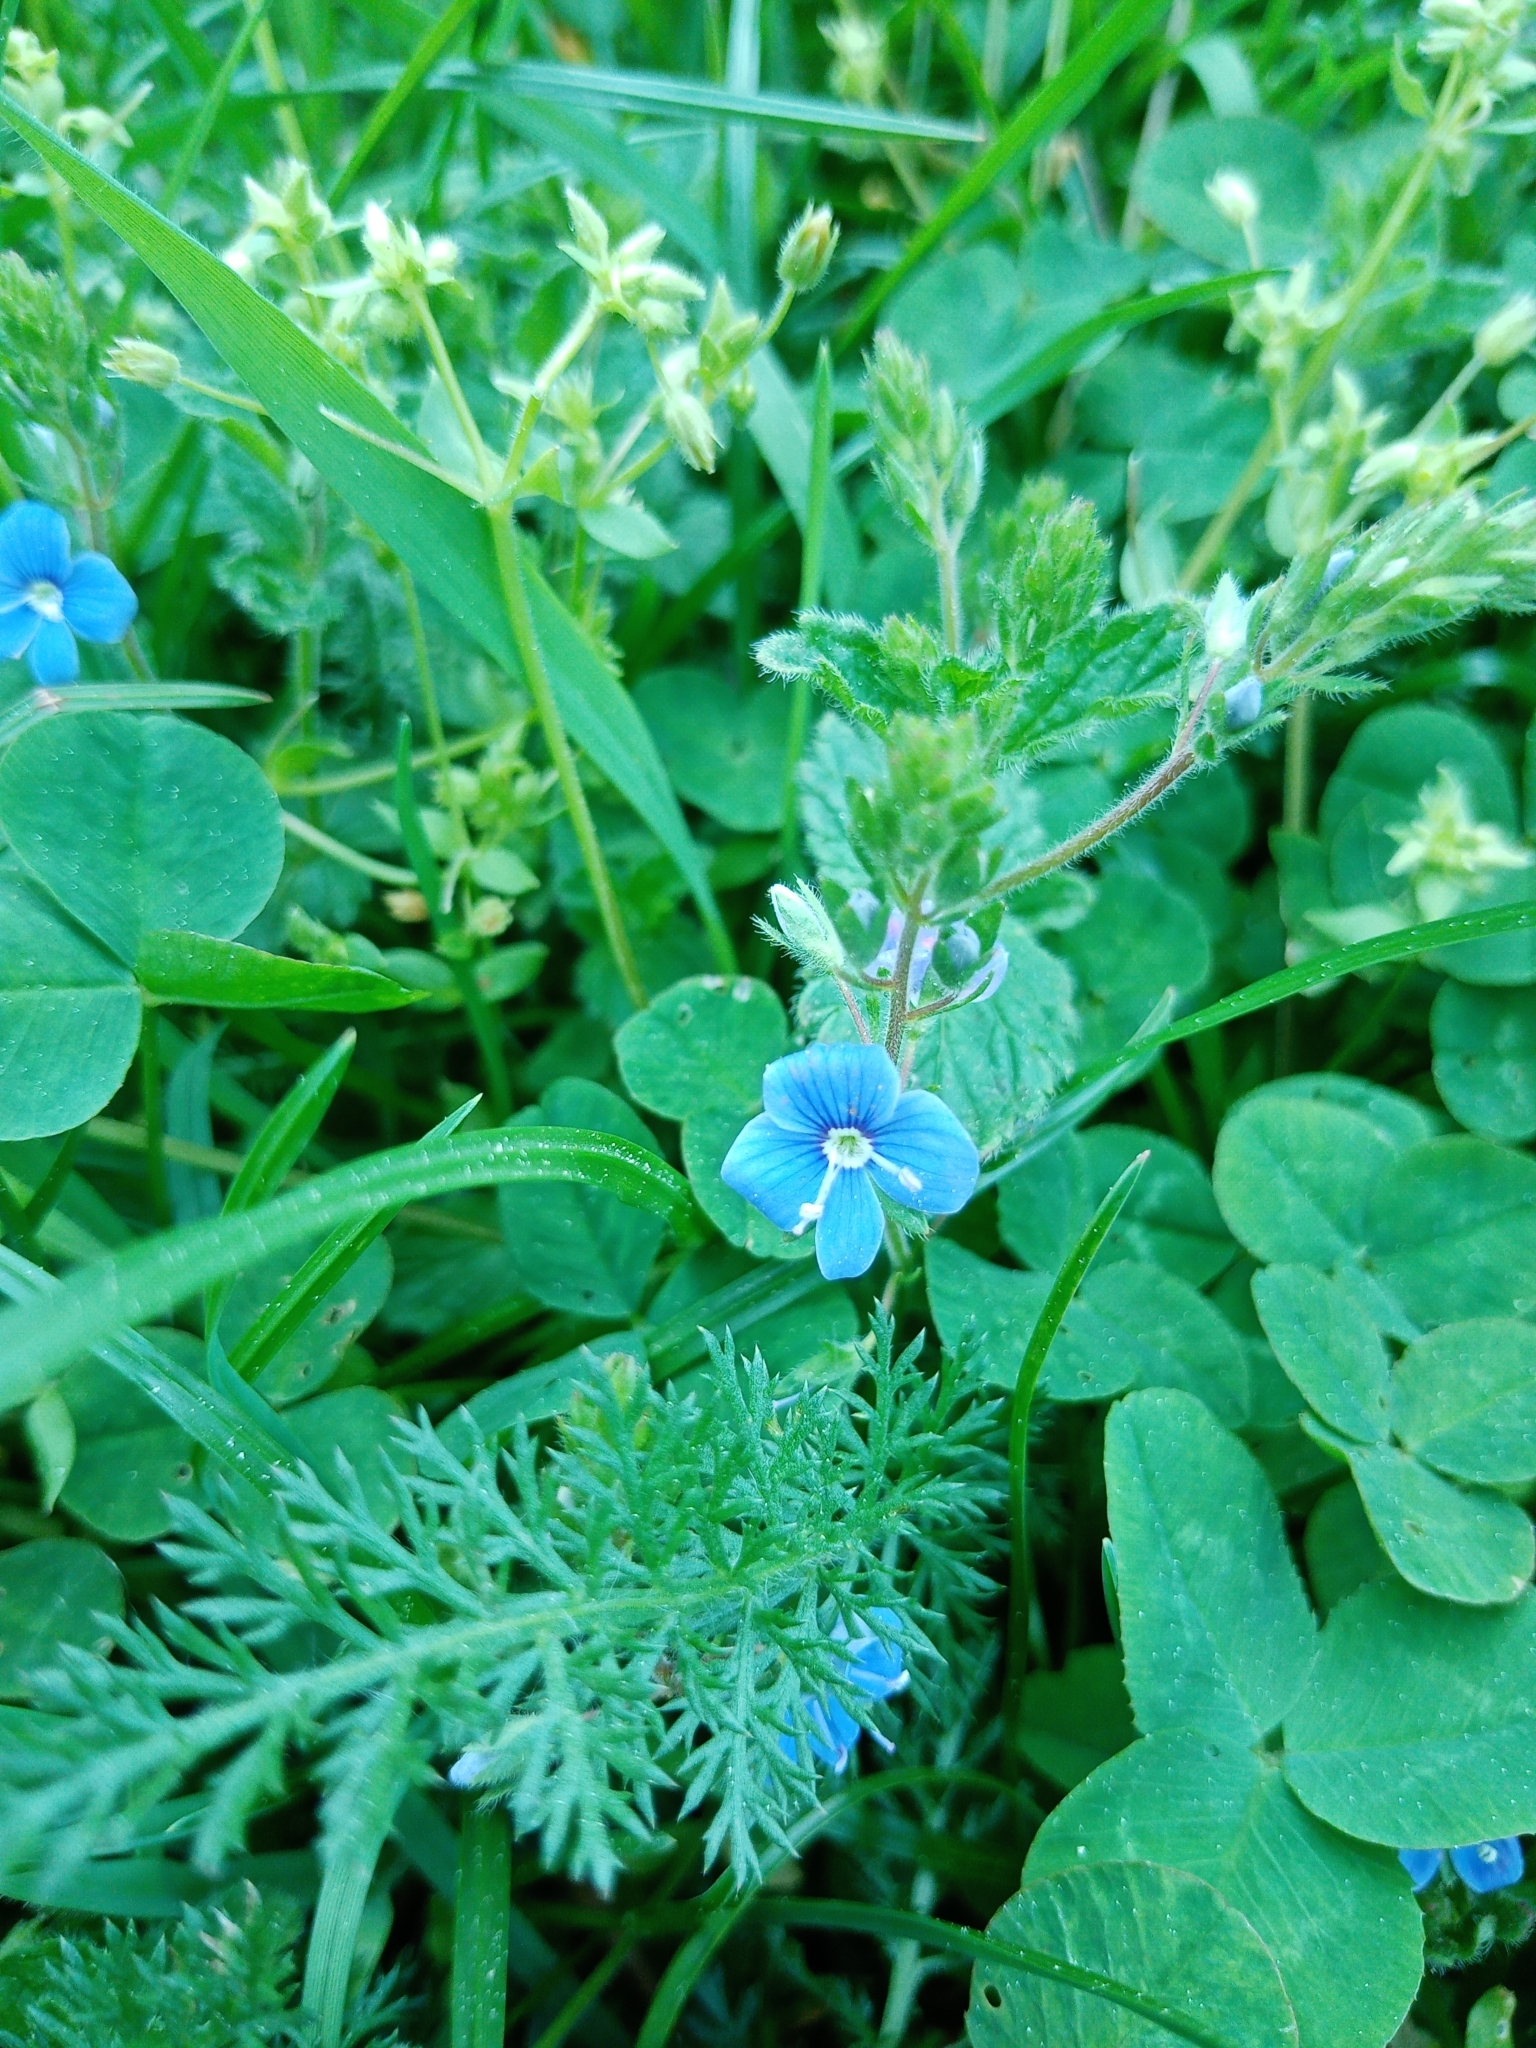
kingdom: Plantae
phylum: Tracheophyta
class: Magnoliopsida
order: Lamiales
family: Plantaginaceae
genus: Veronica
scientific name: Veronica chamaedrys
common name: Germander speedwell
